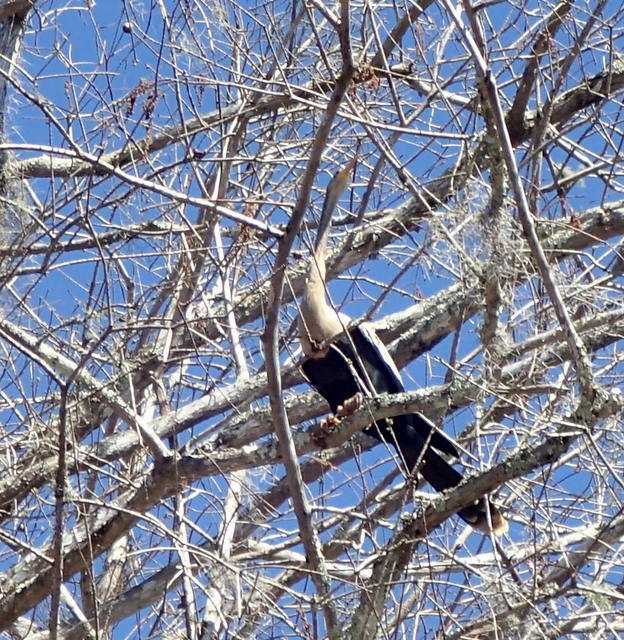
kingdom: Animalia
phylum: Chordata
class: Aves
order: Suliformes
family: Anhingidae
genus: Anhinga
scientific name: Anhinga anhinga
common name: Anhinga
